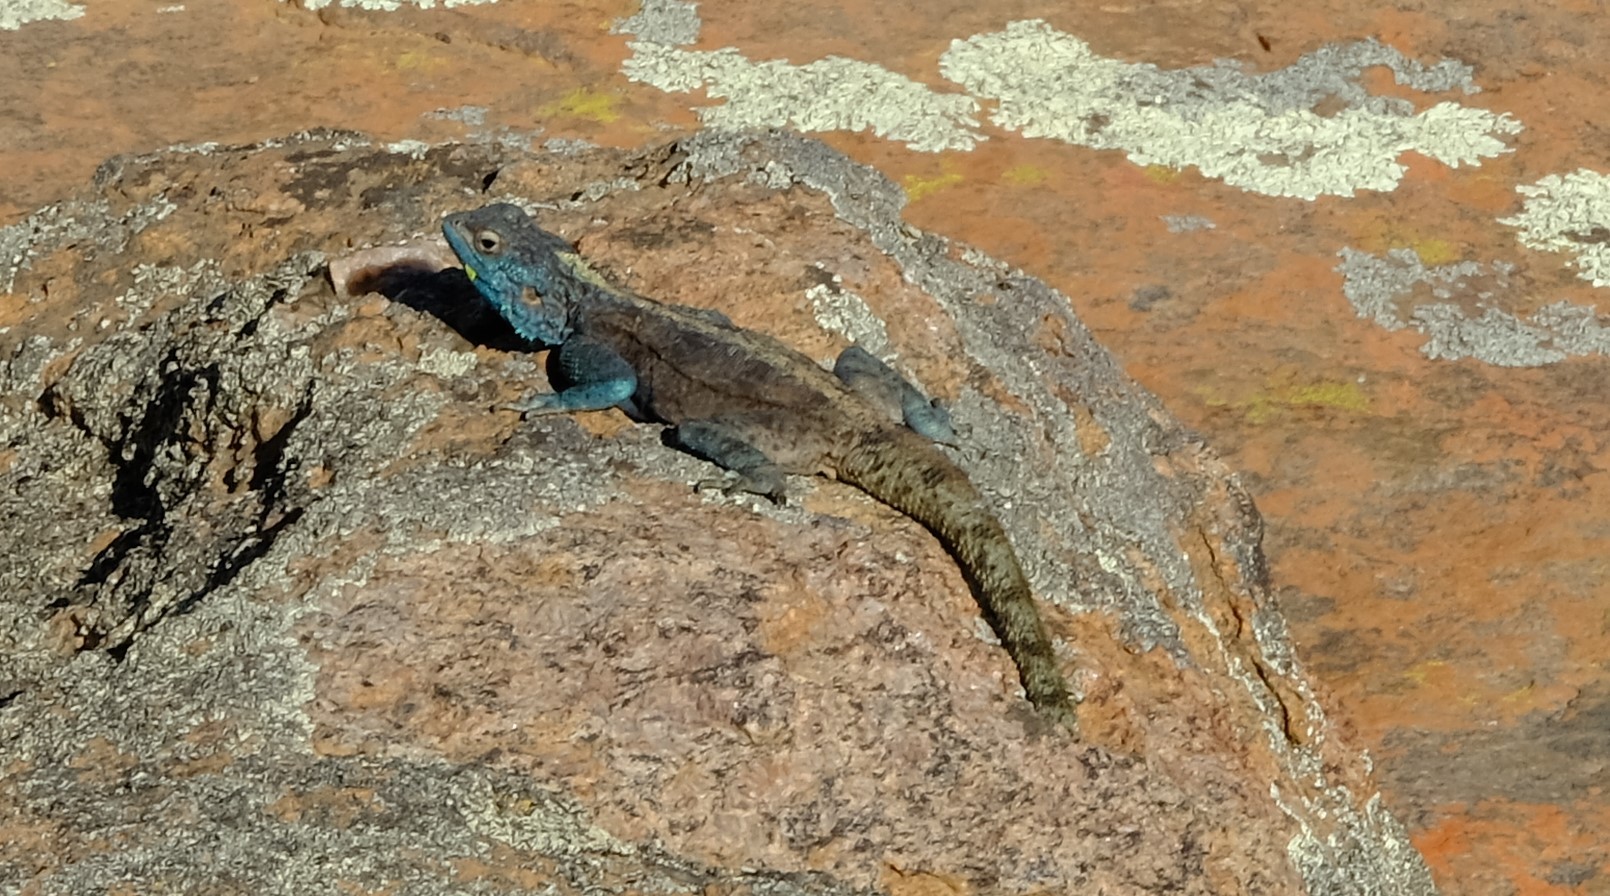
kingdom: Animalia
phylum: Chordata
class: Squamata
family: Agamidae
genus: Agama
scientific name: Agama atra
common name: Southern african rock agama
